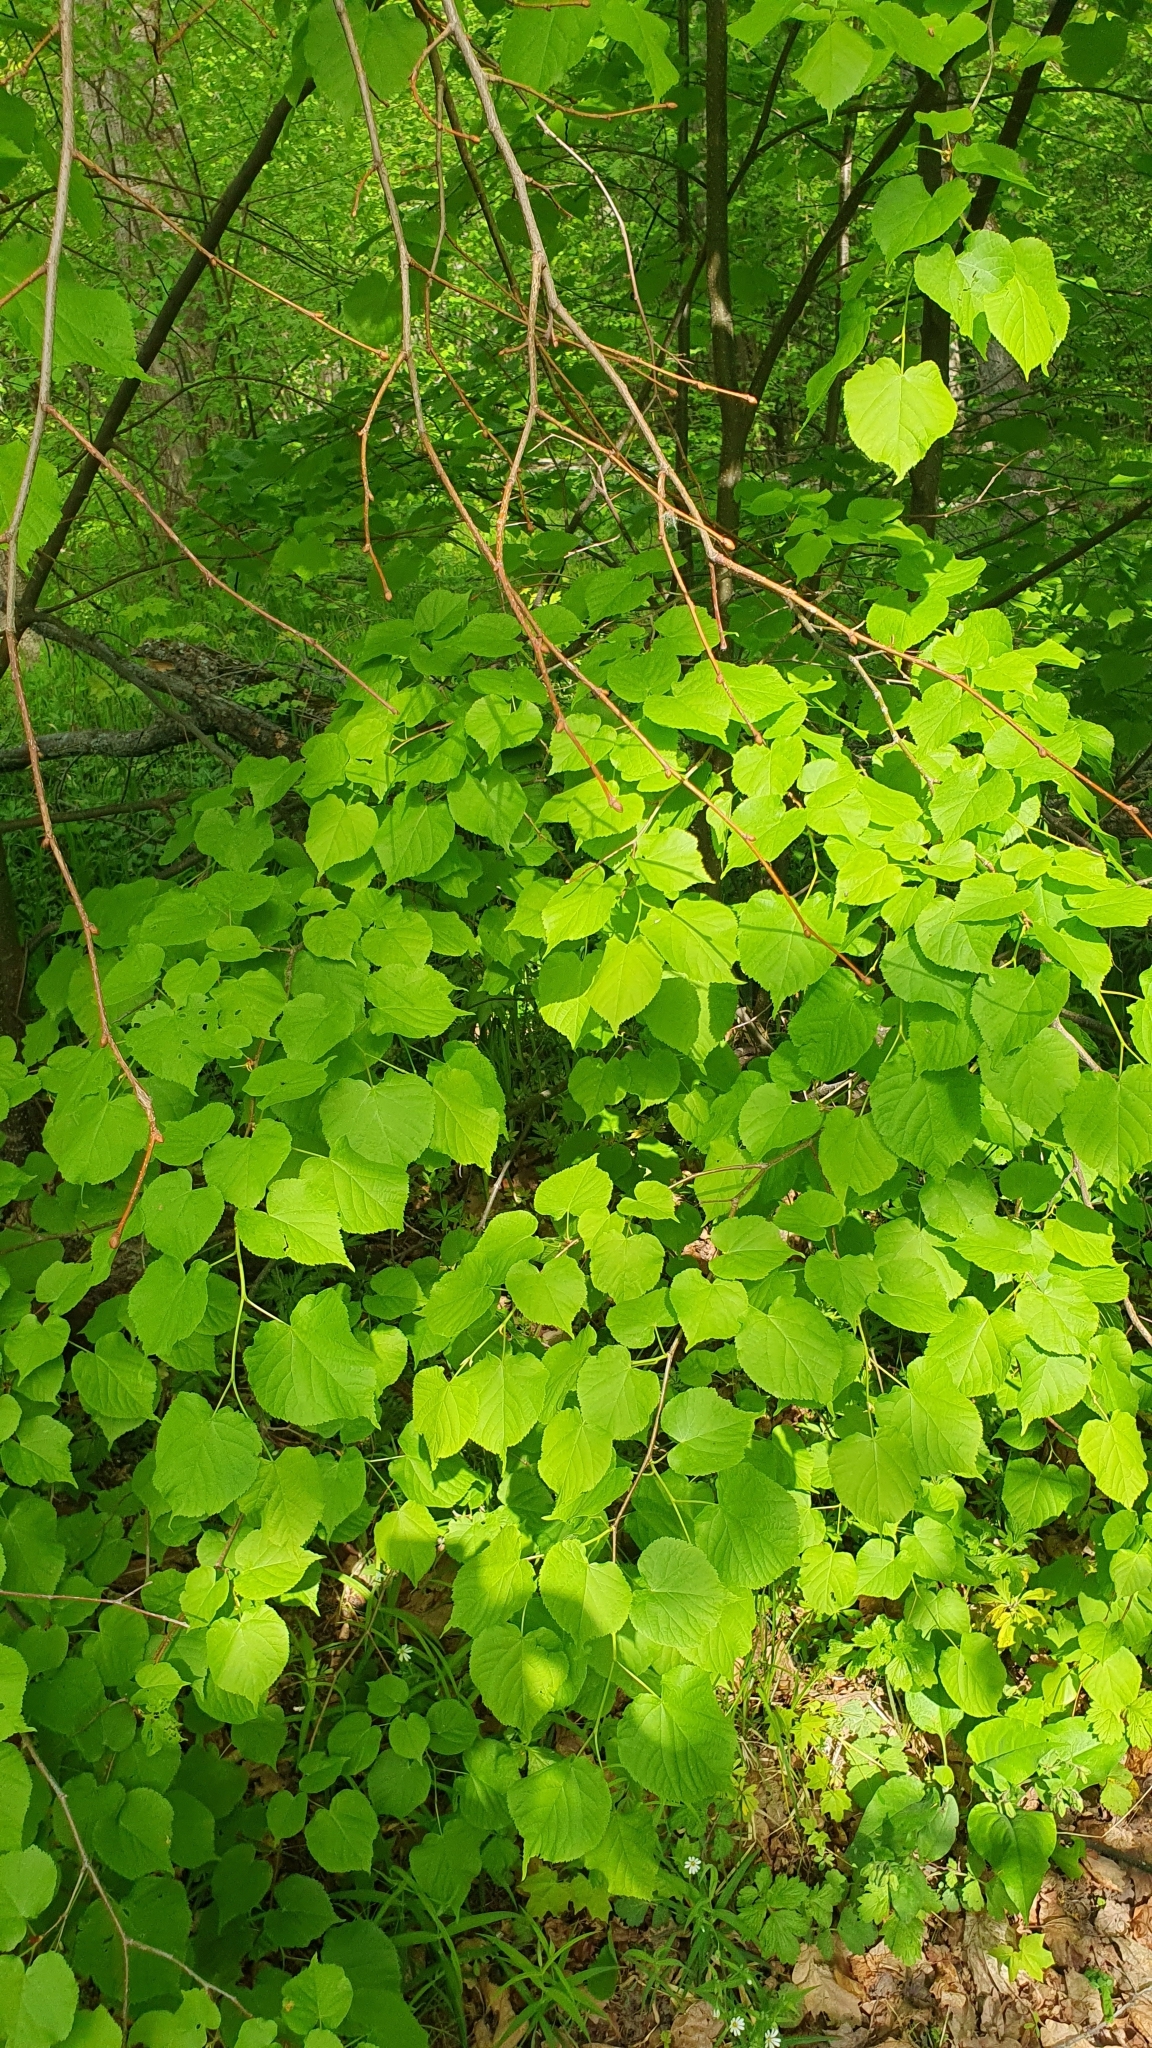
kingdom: Plantae
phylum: Tracheophyta
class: Magnoliopsida
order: Malvales
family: Malvaceae
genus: Tilia
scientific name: Tilia cordata
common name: Small-leaved lime
